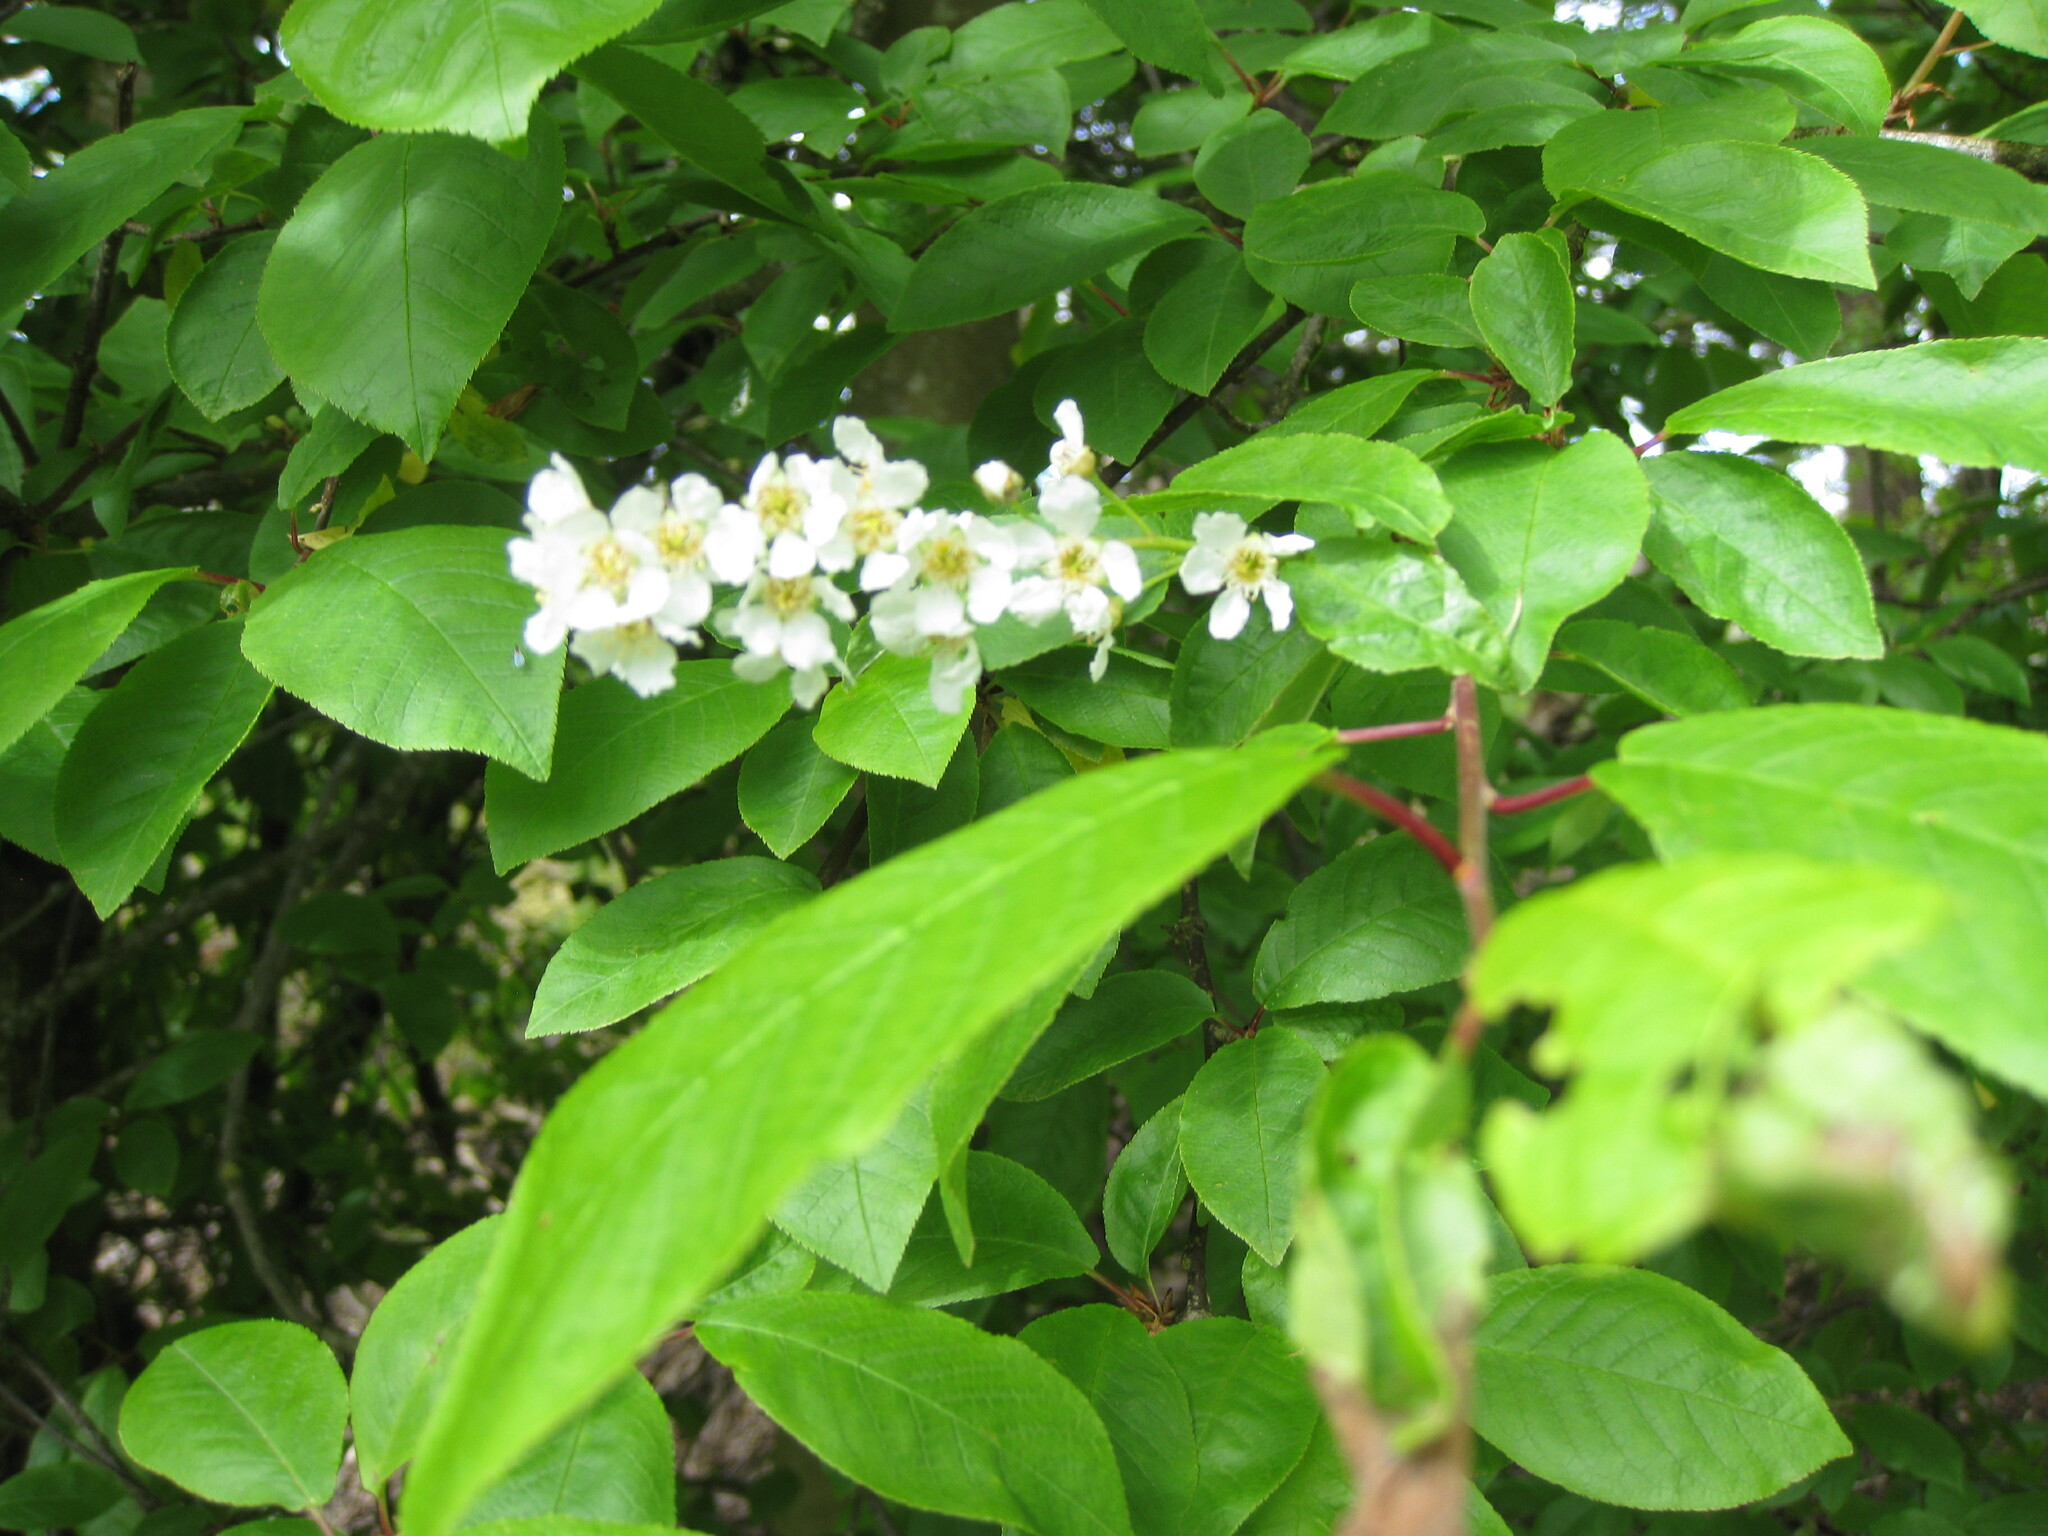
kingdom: Plantae
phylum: Tracheophyta
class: Magnoliopsida
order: Rosales
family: Rosaceae
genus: Prunus
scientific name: Prunus padus
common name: Bird cherry
